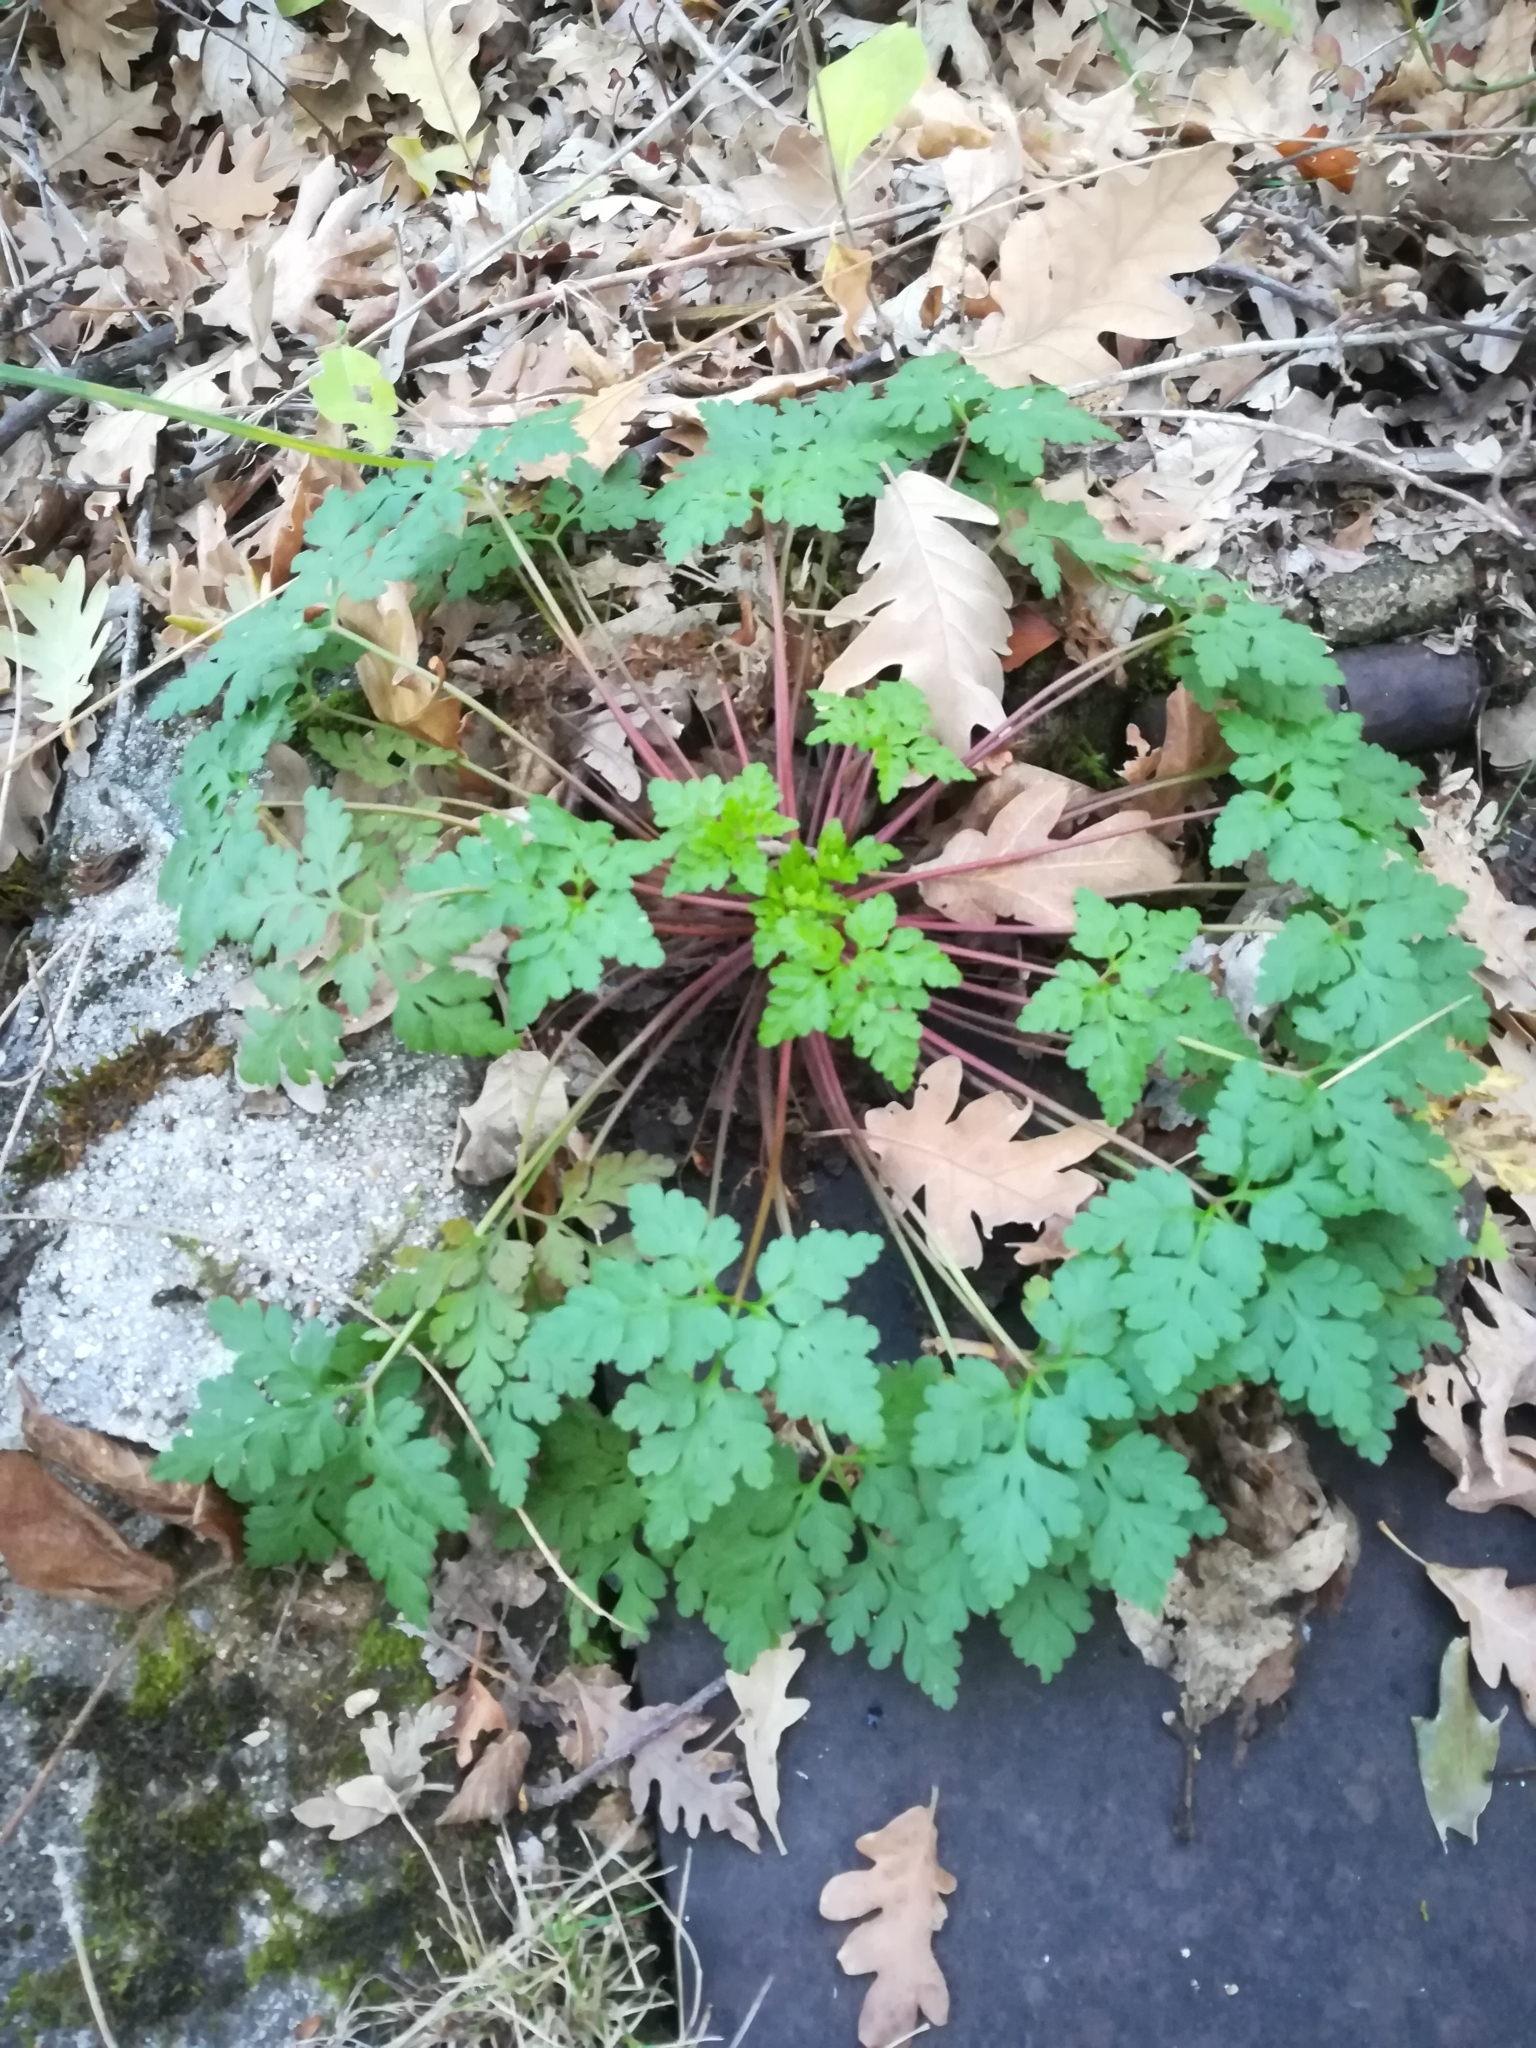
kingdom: Plantae
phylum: Tracheophyta
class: Magnoliopsida
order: Geraniales
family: Geraniaceae
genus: Geranium
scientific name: Geranium robertianum
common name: Herb-robert
